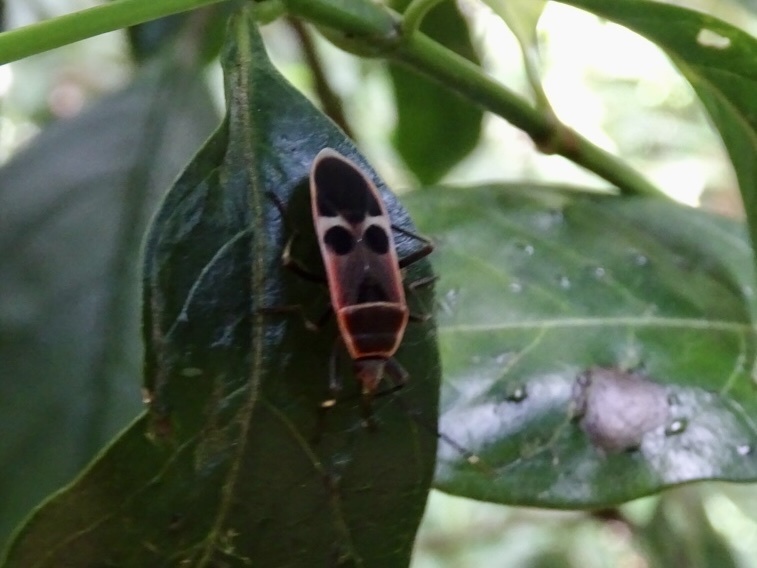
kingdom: Animalia
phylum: Arthropoda
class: Insecta
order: Hemiptera
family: Largidae
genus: Physopelta
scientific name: Physopelta gutta
